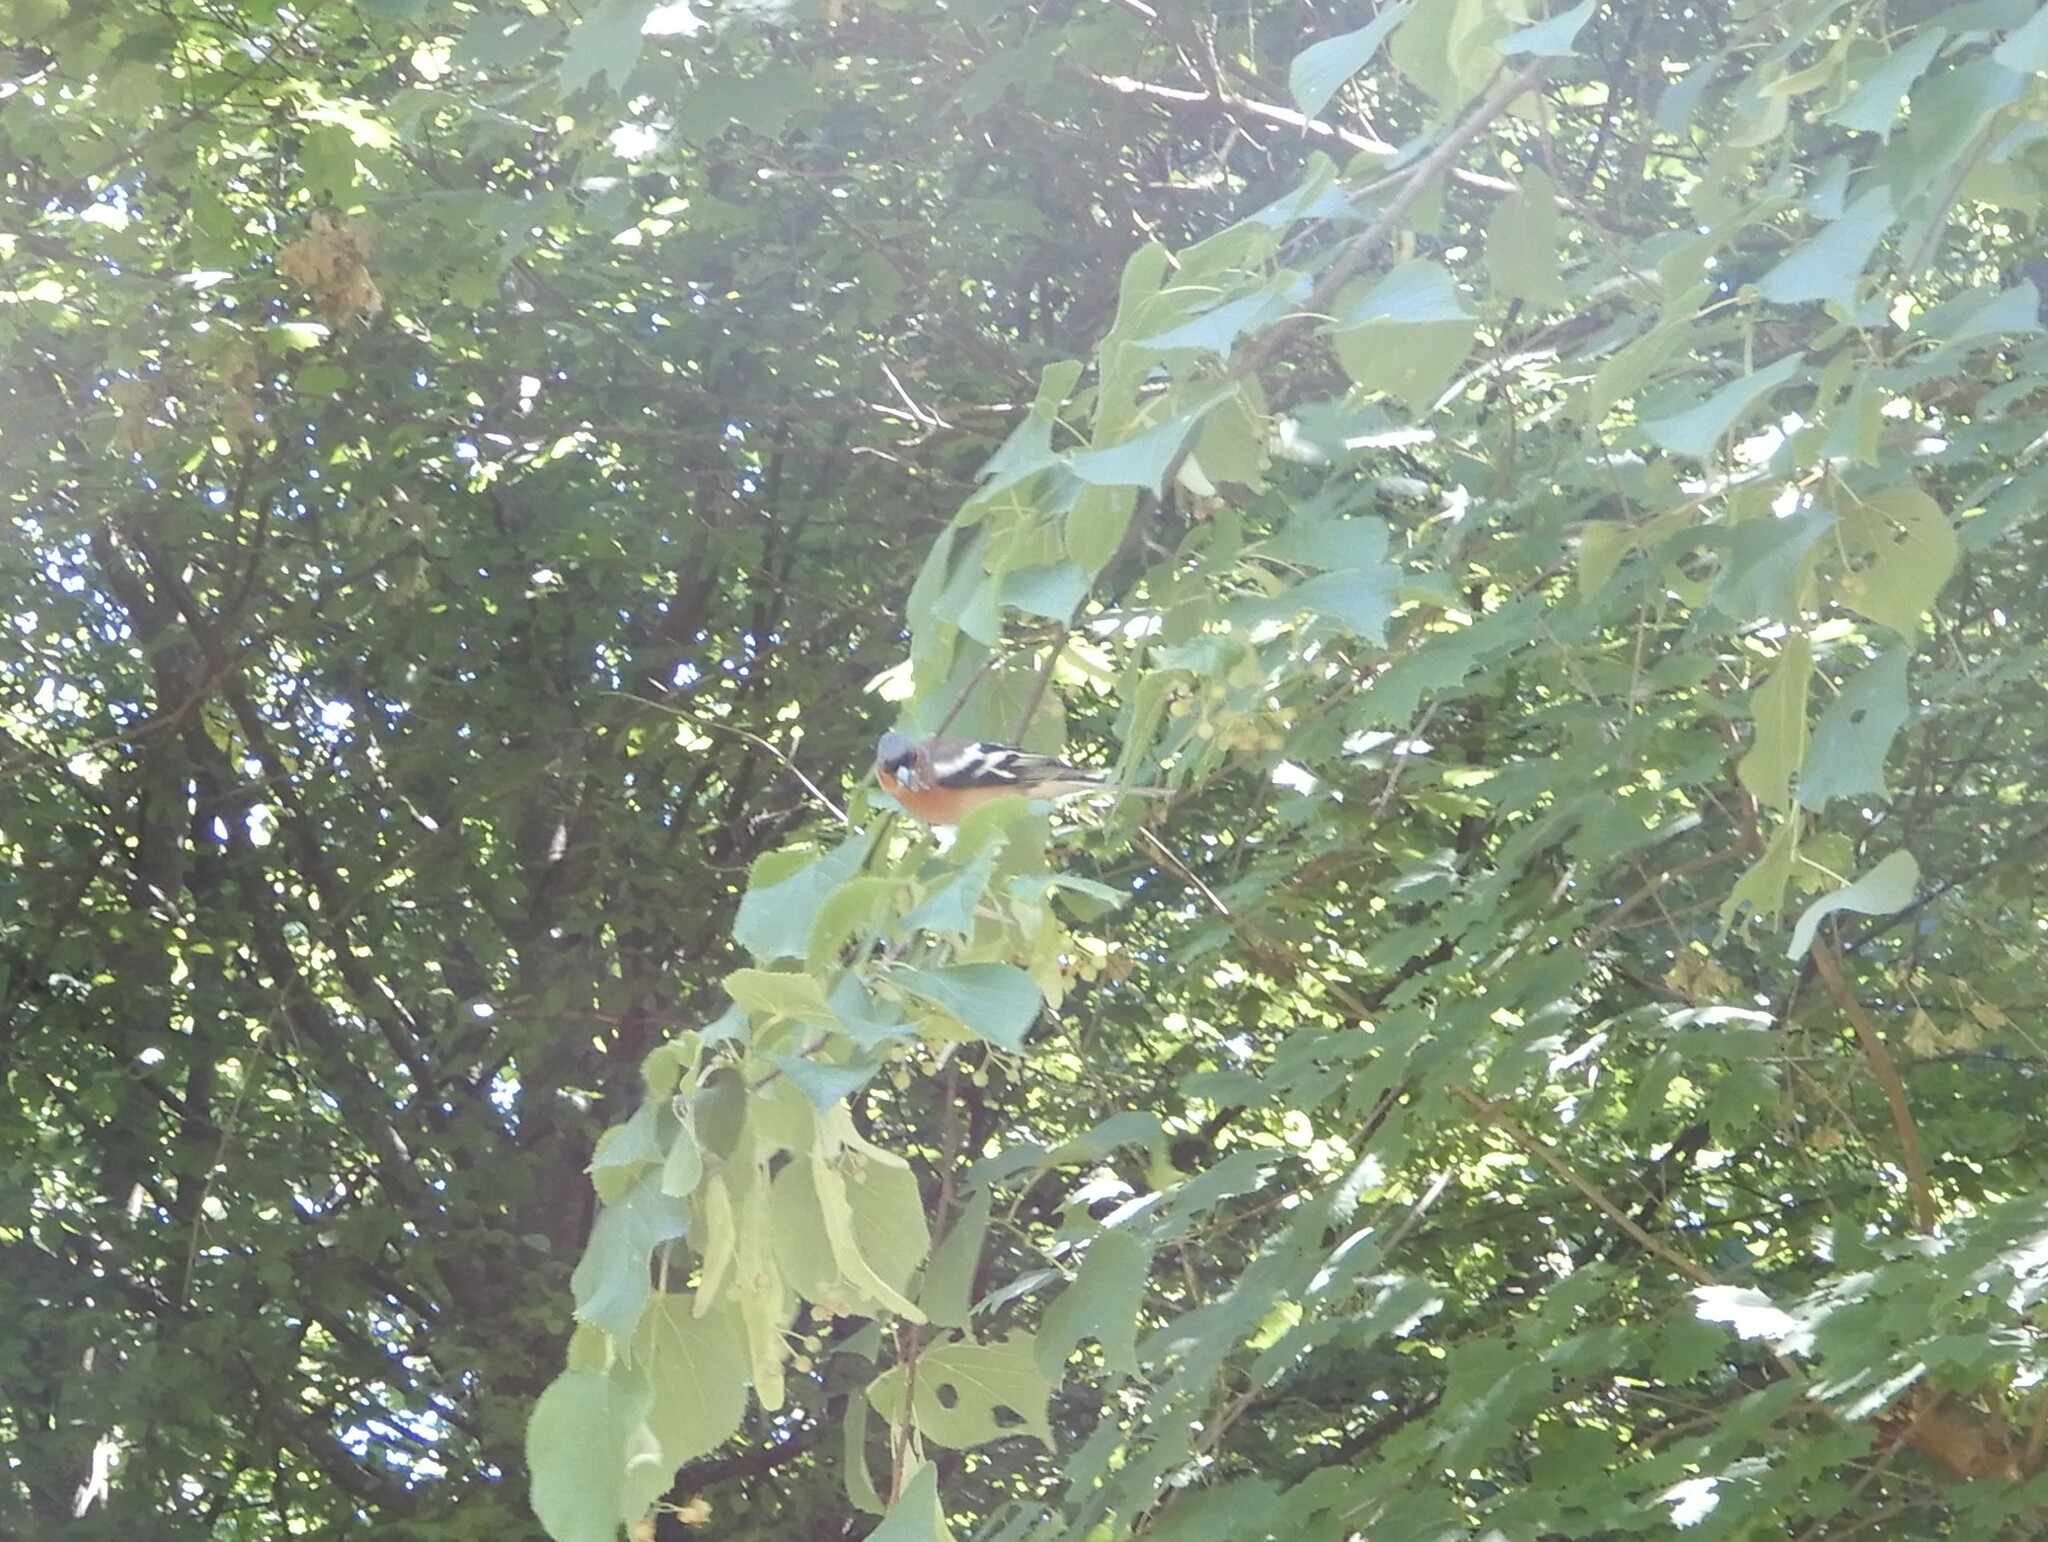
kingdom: Animalia
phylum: Chordata
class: Aves
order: Passeriformes
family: Fringillidae
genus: Fringilla
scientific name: Fringilla coelebs
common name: Common chaffinch
